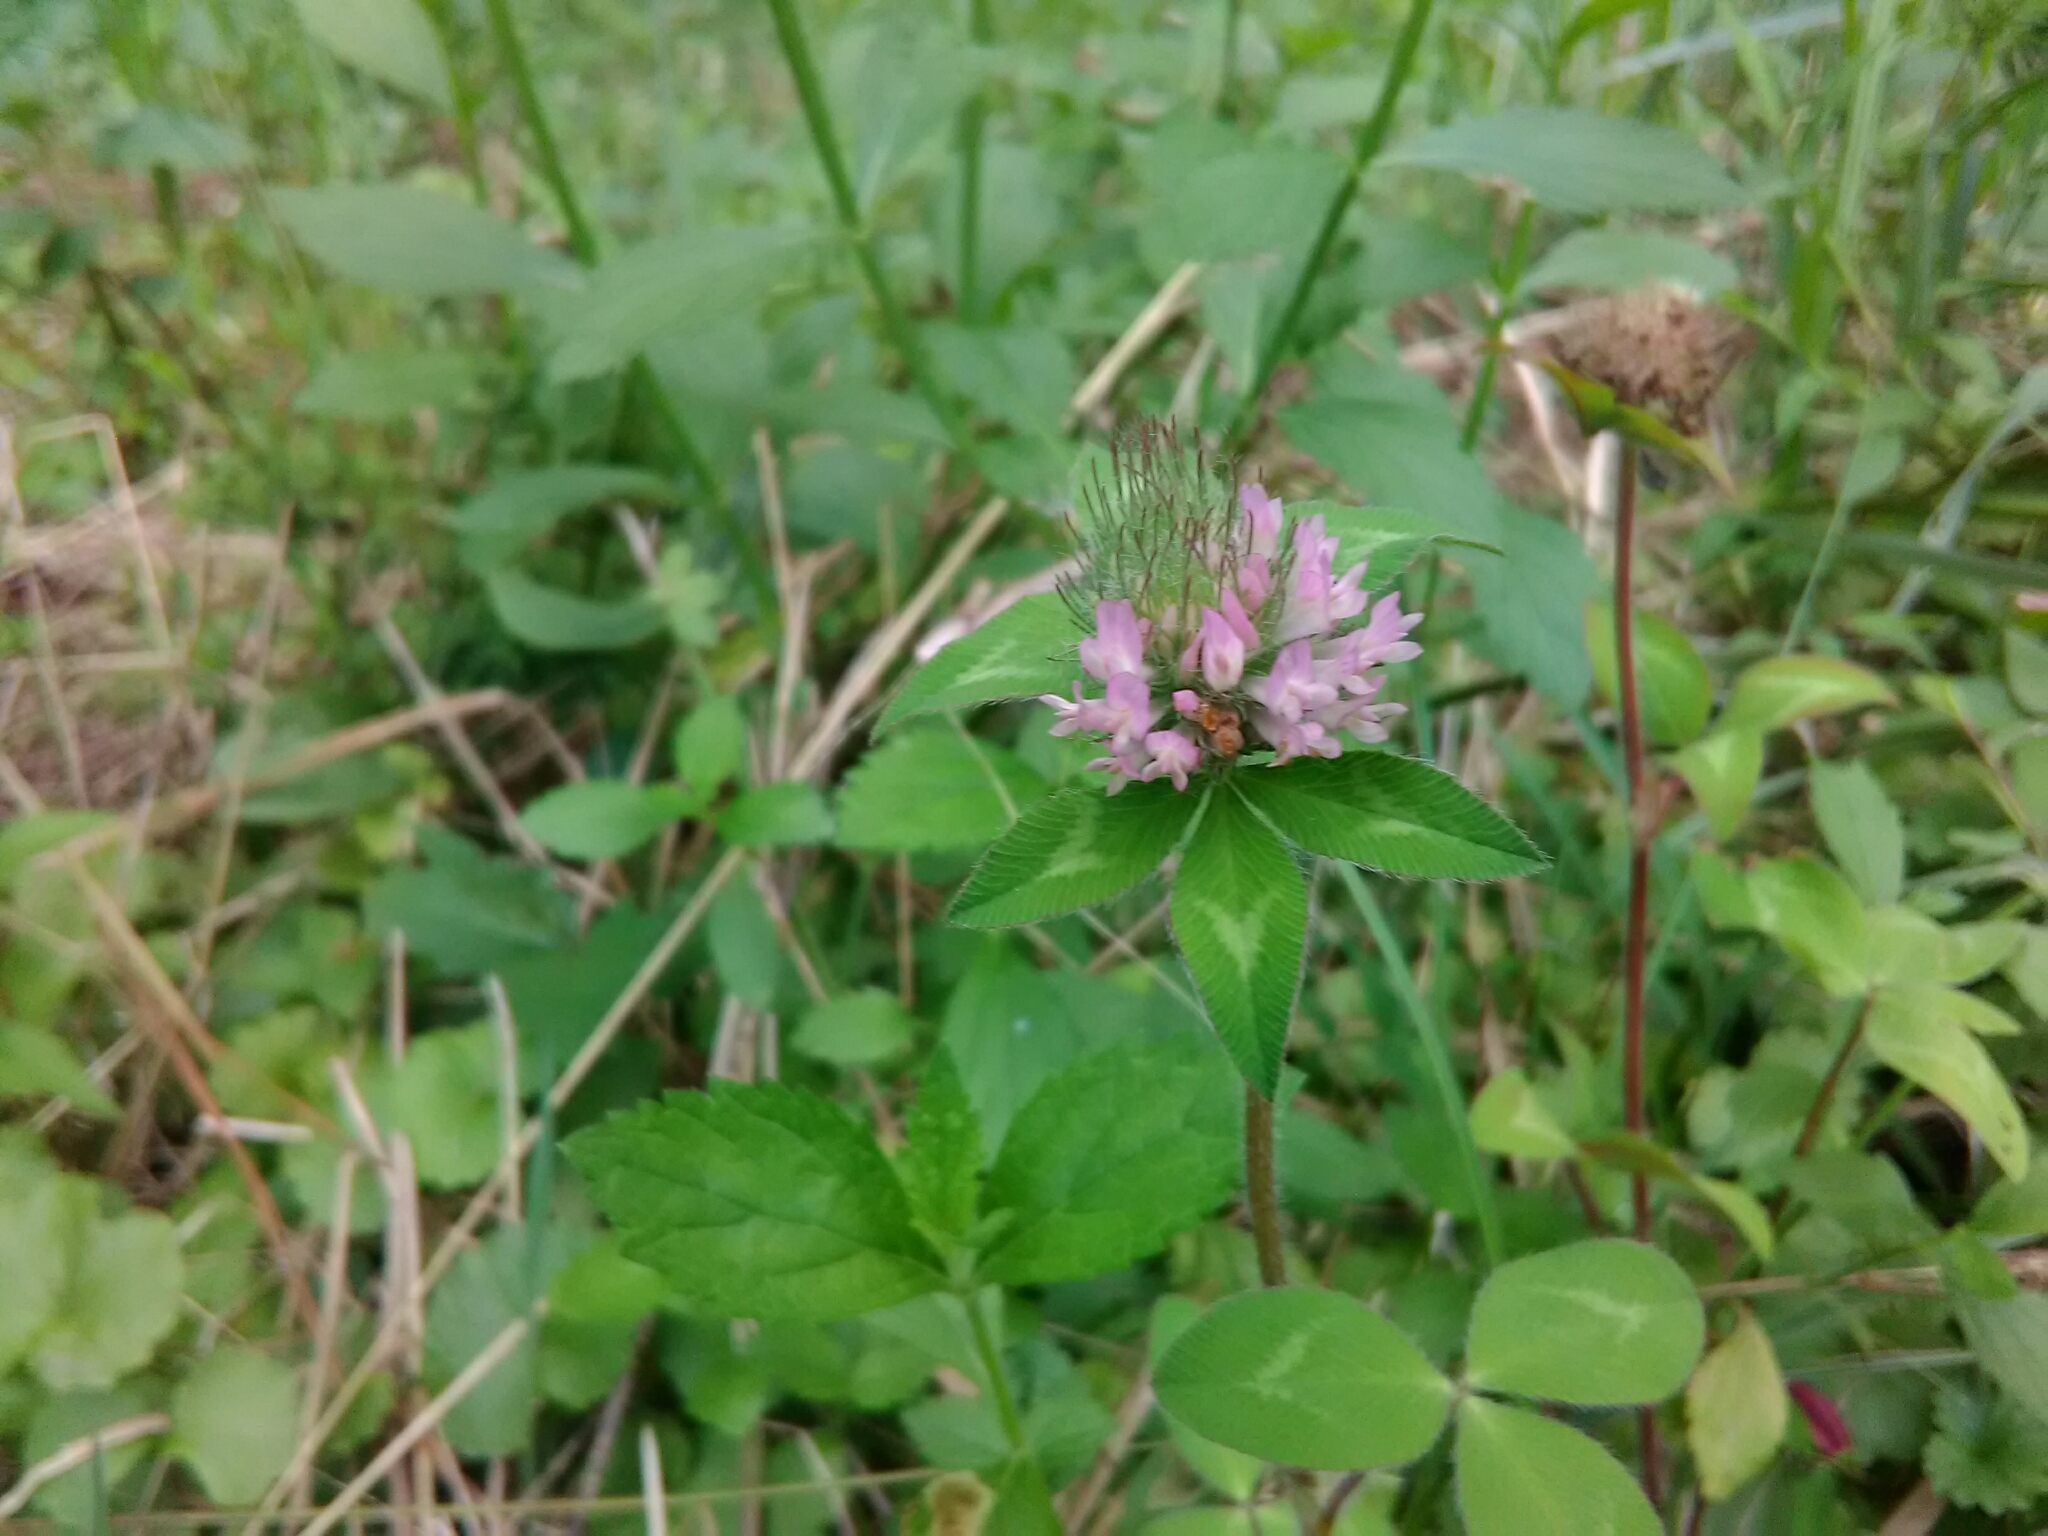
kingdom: Plantae
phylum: Tracheophyta
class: Magnoliopsida
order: Fabales
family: Fabaceae
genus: Trifolium
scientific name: Trifolium pratense
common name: Red clover
